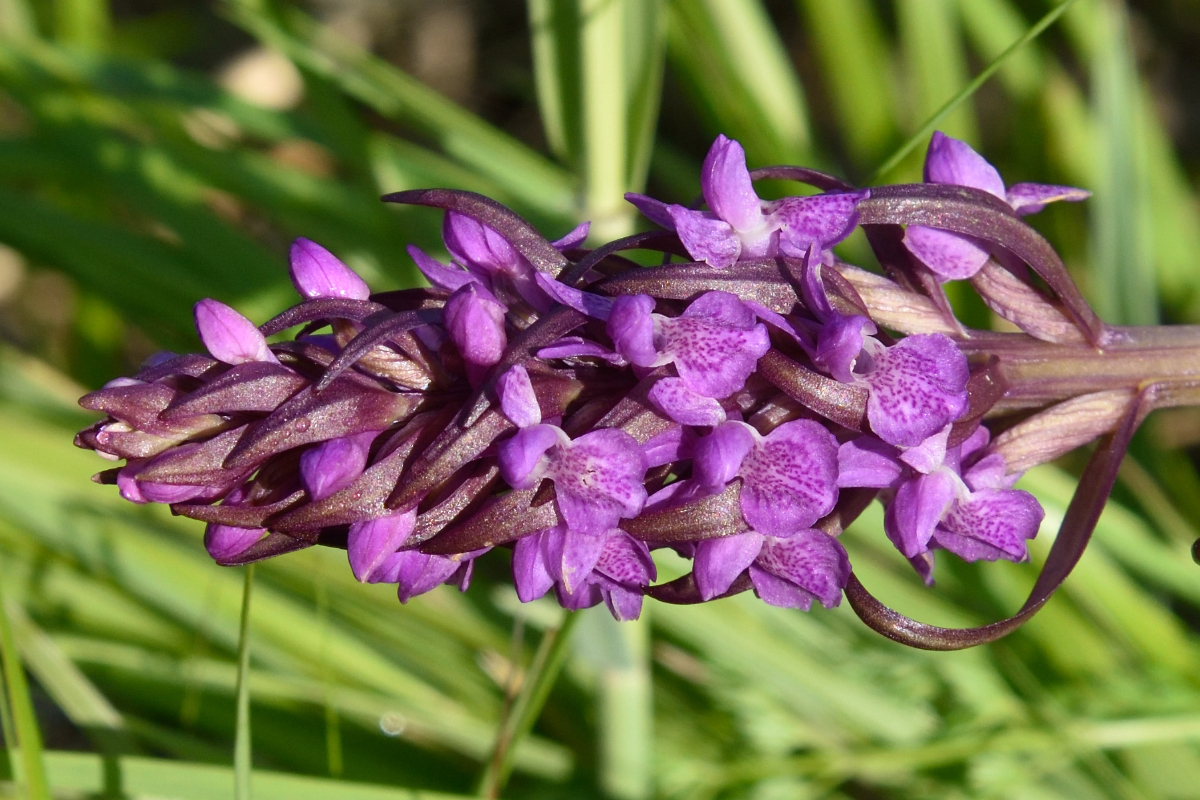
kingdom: Plantae
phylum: Tracheophyta
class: Liliopsida
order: Asparagales
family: Orchidaceae
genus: Dactylorhiza
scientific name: Dactylorhiza incarnata
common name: Early marsh-orchid
